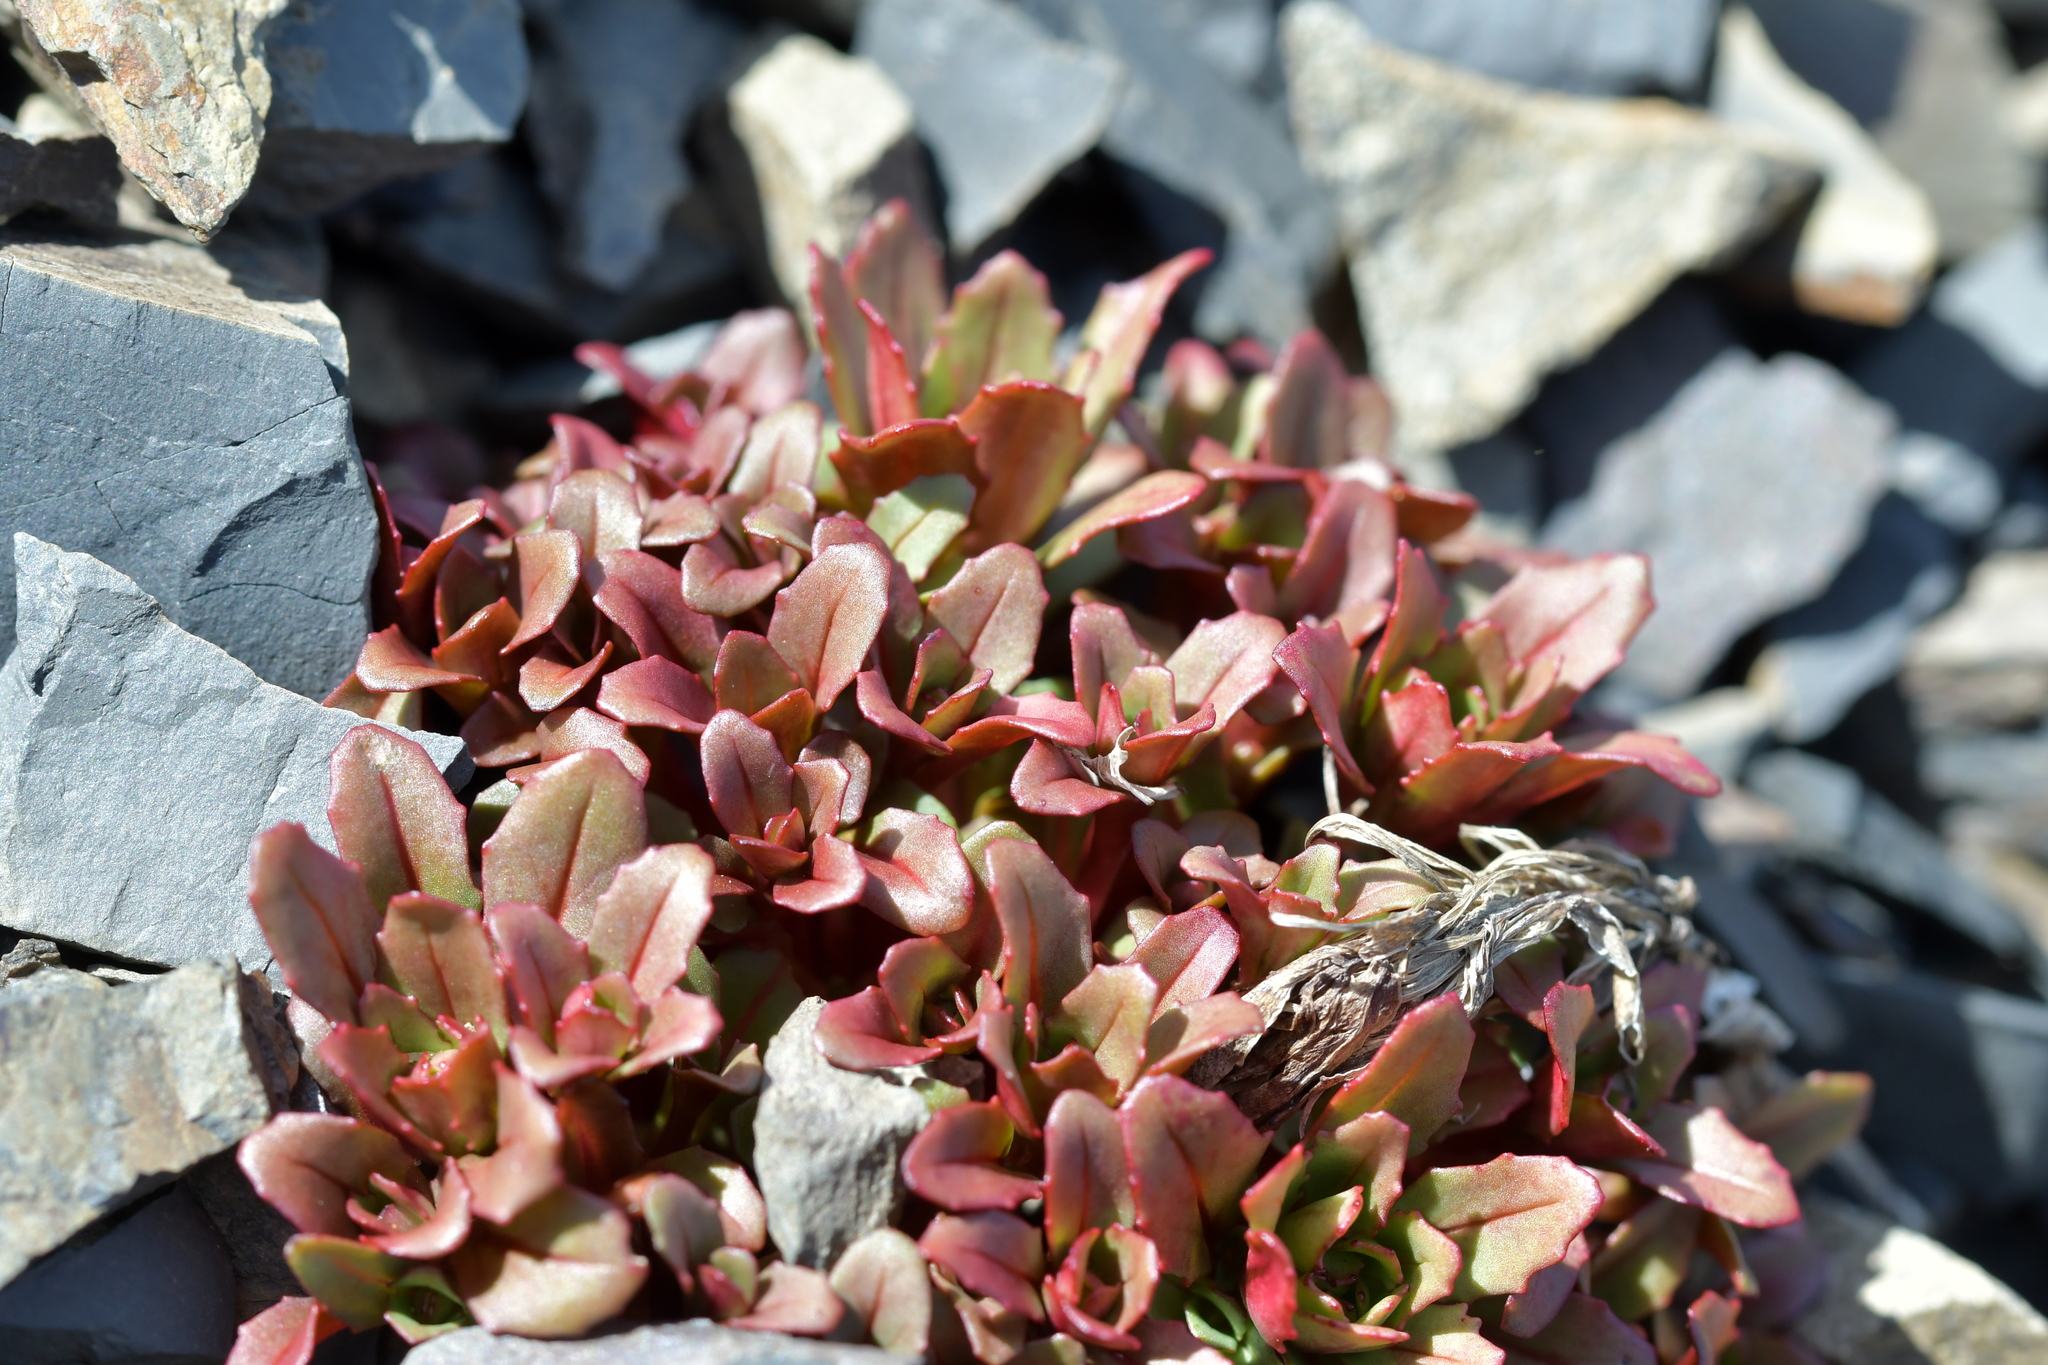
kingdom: Plantae
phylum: Tracheophyta
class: Magnoliopsida
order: Myrtales
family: Onagraceae
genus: Epilobium
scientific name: Epilobium pycnostachyum
